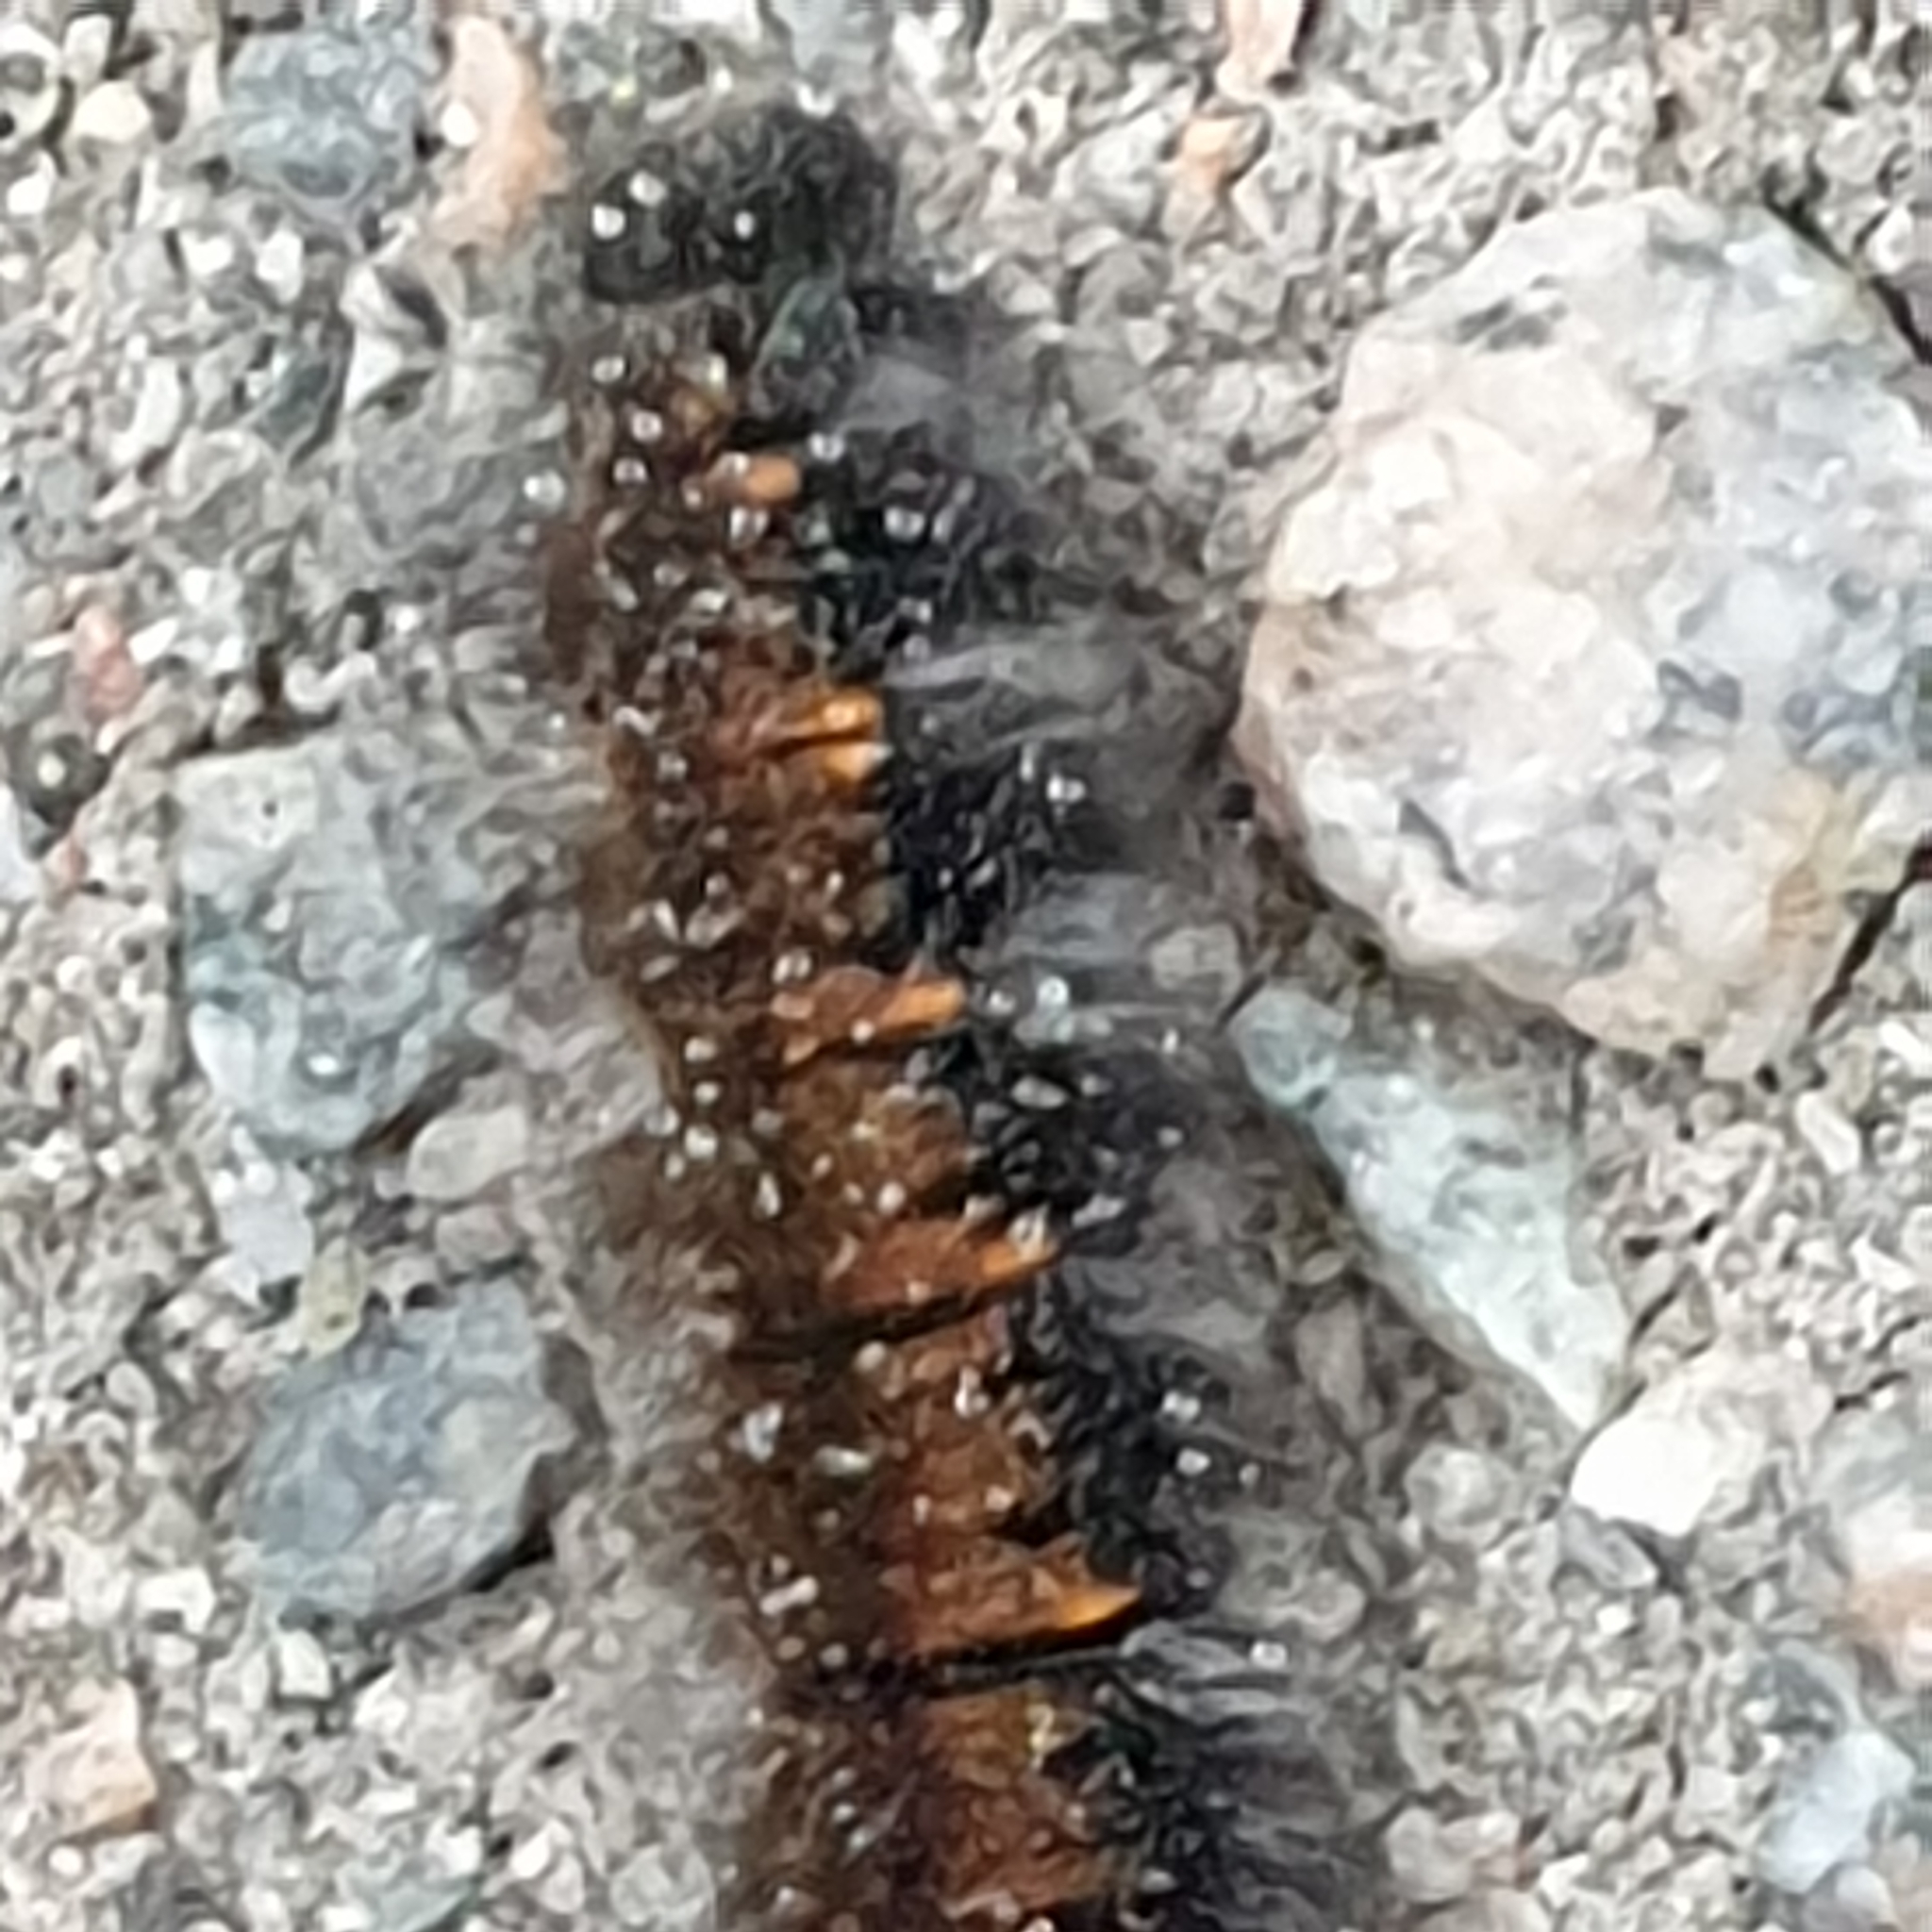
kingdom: Animalia
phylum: Arthropoda
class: Insecta
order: Lepidoptera
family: Lasiocampidae
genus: Macrothylacia
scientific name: Macrothylacia rubi
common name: Fox moth
